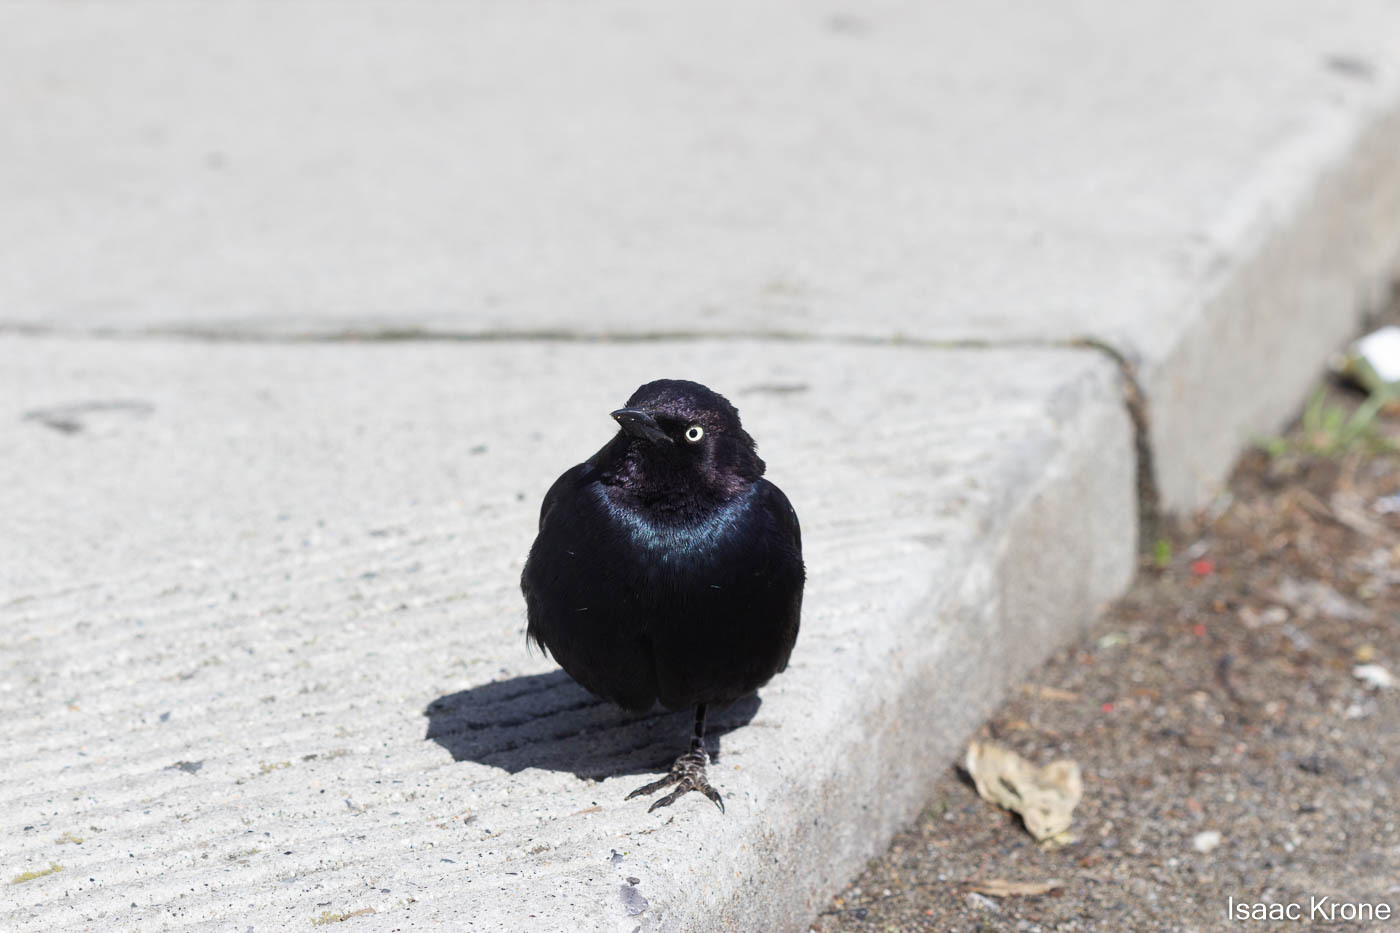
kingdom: Animalia
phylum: Chordata
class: Aves
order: Passeriformes
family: Icteridae
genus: Euphagus
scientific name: Euphagus cyanocephalus
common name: Brewer's blackbird
